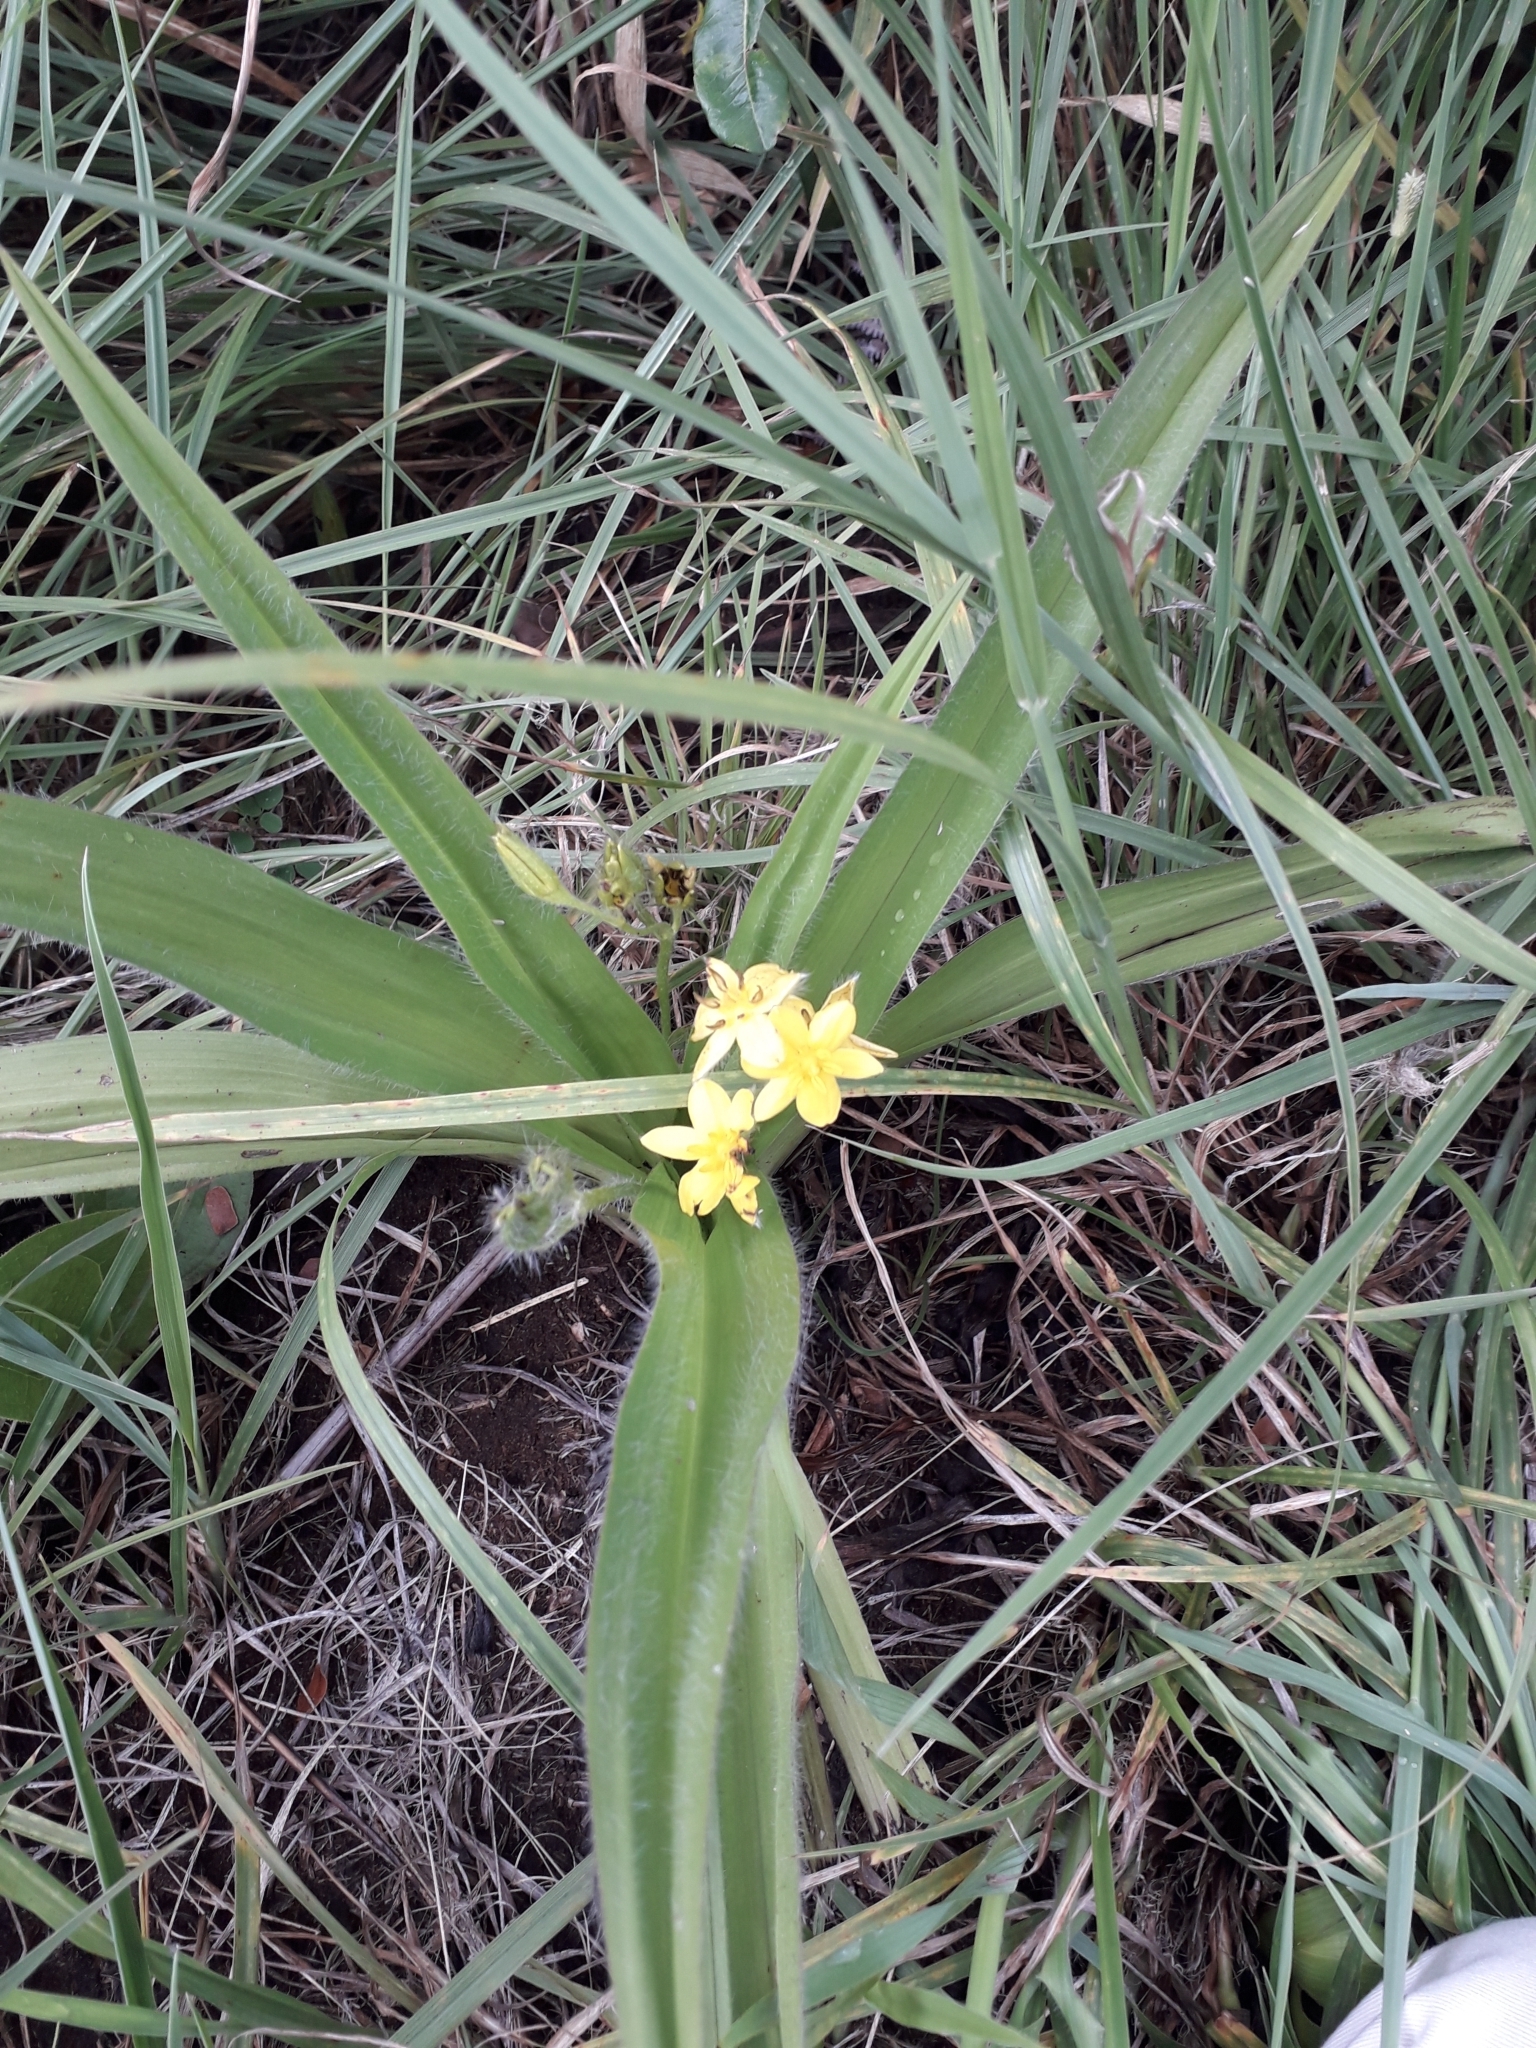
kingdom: Plantae
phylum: Tracheophyta
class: Liliopsida
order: Asparagales
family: Hypoxidaceae
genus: Hypoxis
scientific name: Hypoxis hemerocallidea
